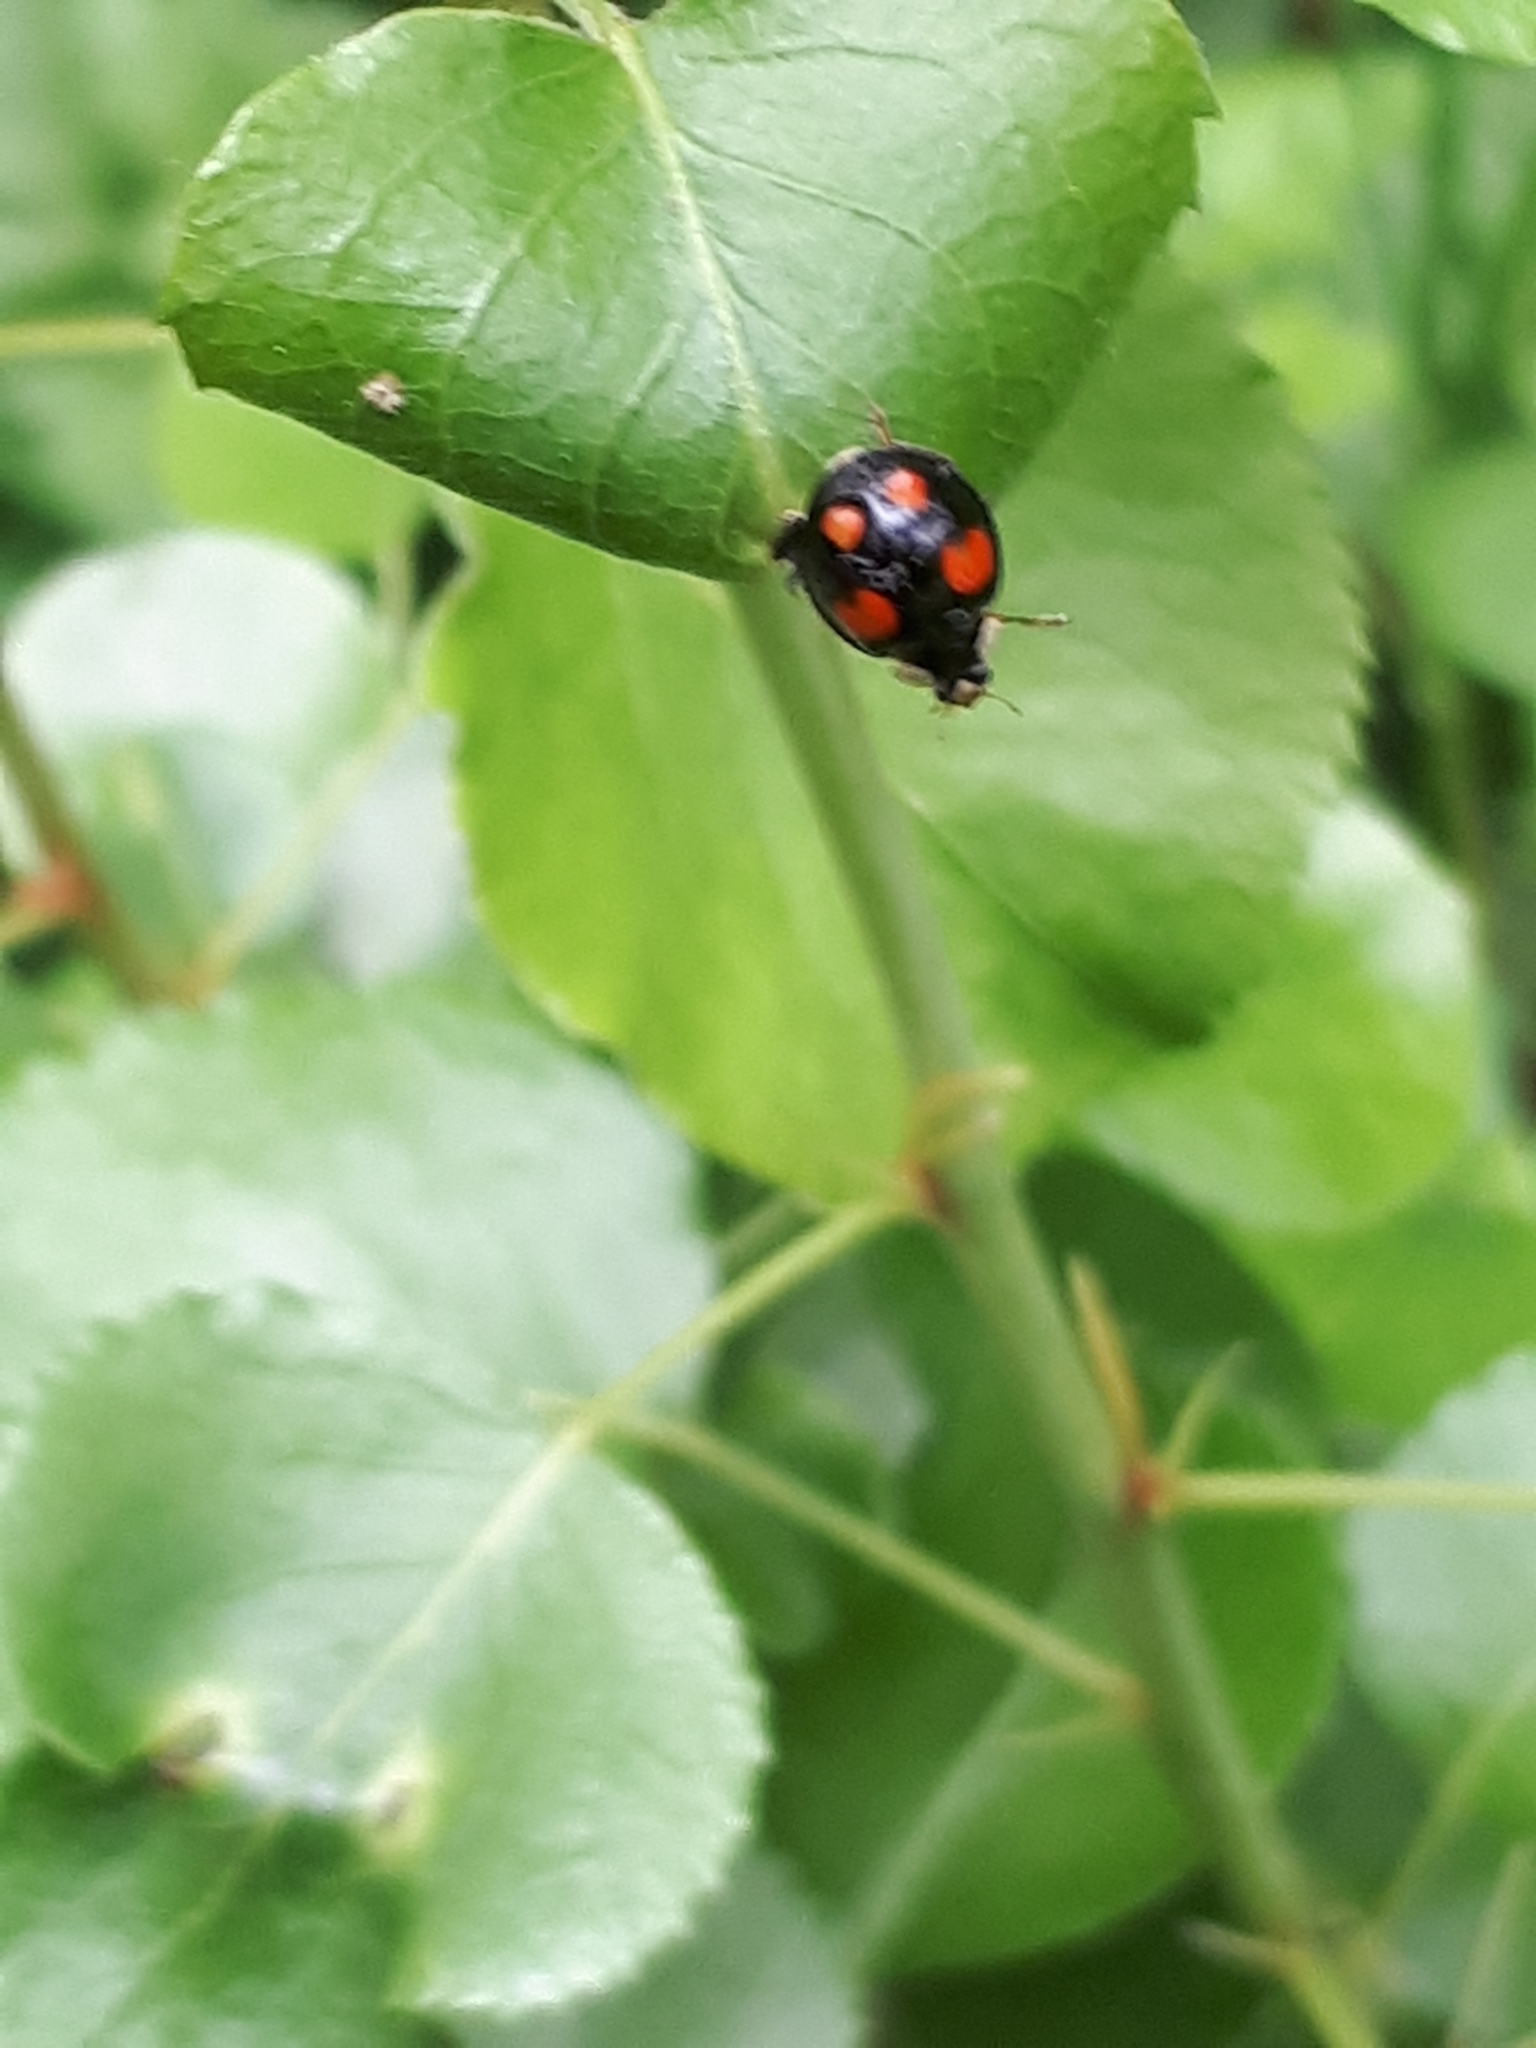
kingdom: Animalia
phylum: Arthropoda
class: Insecta
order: Coleoptera
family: Coccinellidae
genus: Harmonia
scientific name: Harmonia axyridis
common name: Harlequin ladybird
